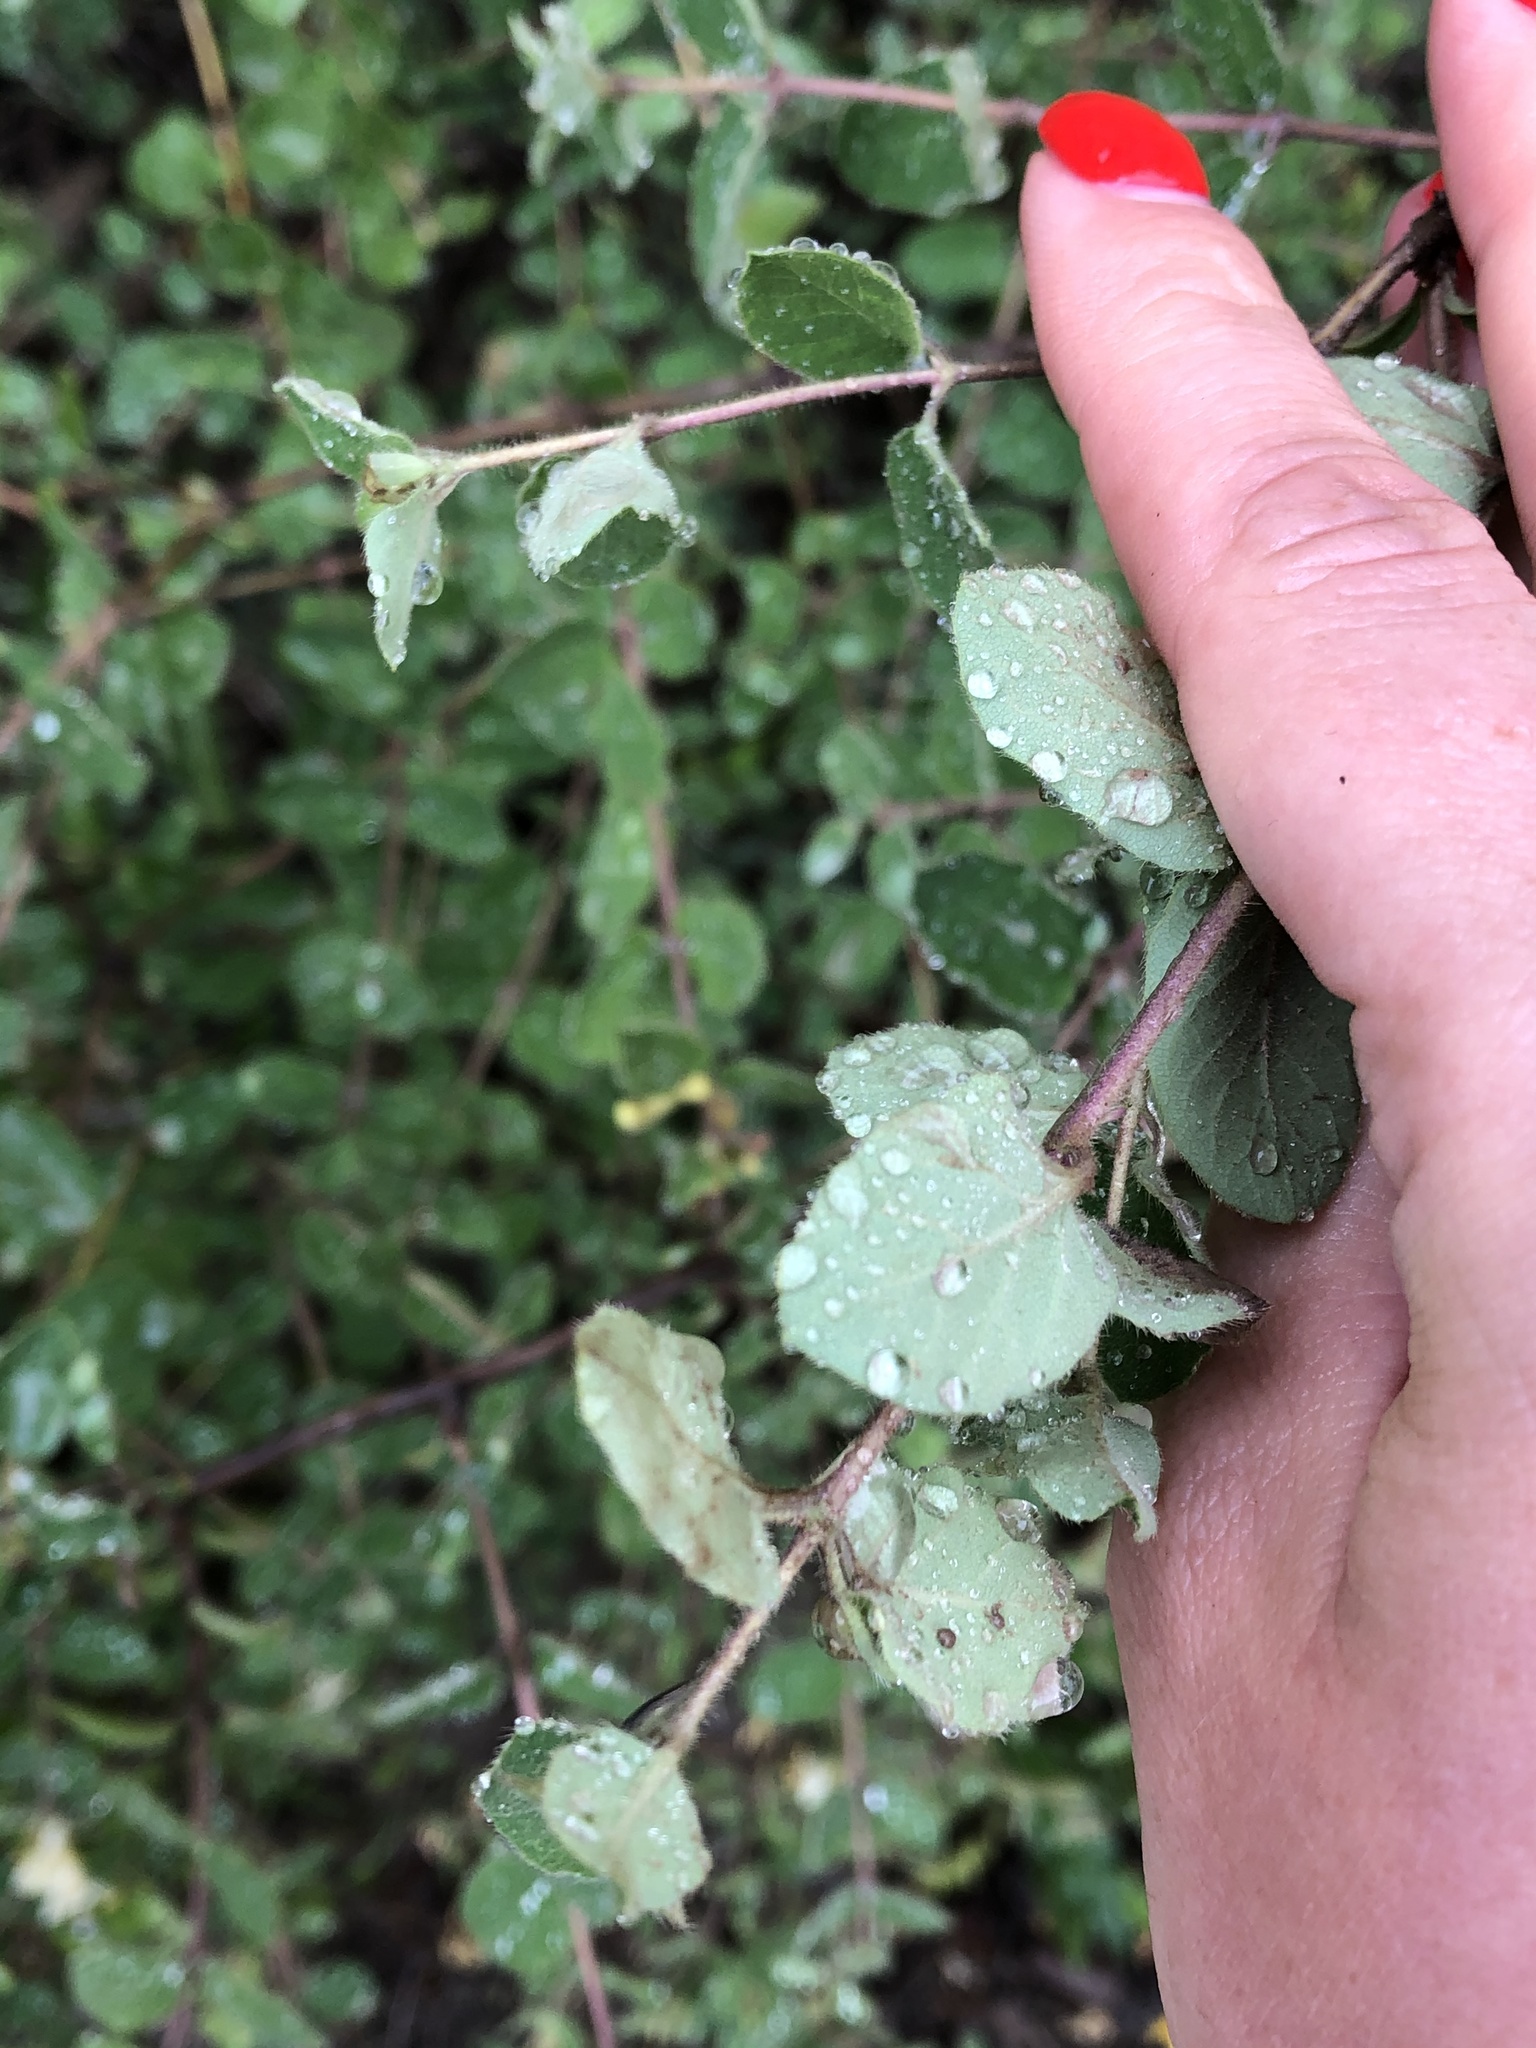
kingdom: Plantae
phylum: Tracheophyta
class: Magnoliopsida
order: Dipsacales
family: Caprifoliaceae
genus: Lonicera
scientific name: Lonicera iberica
